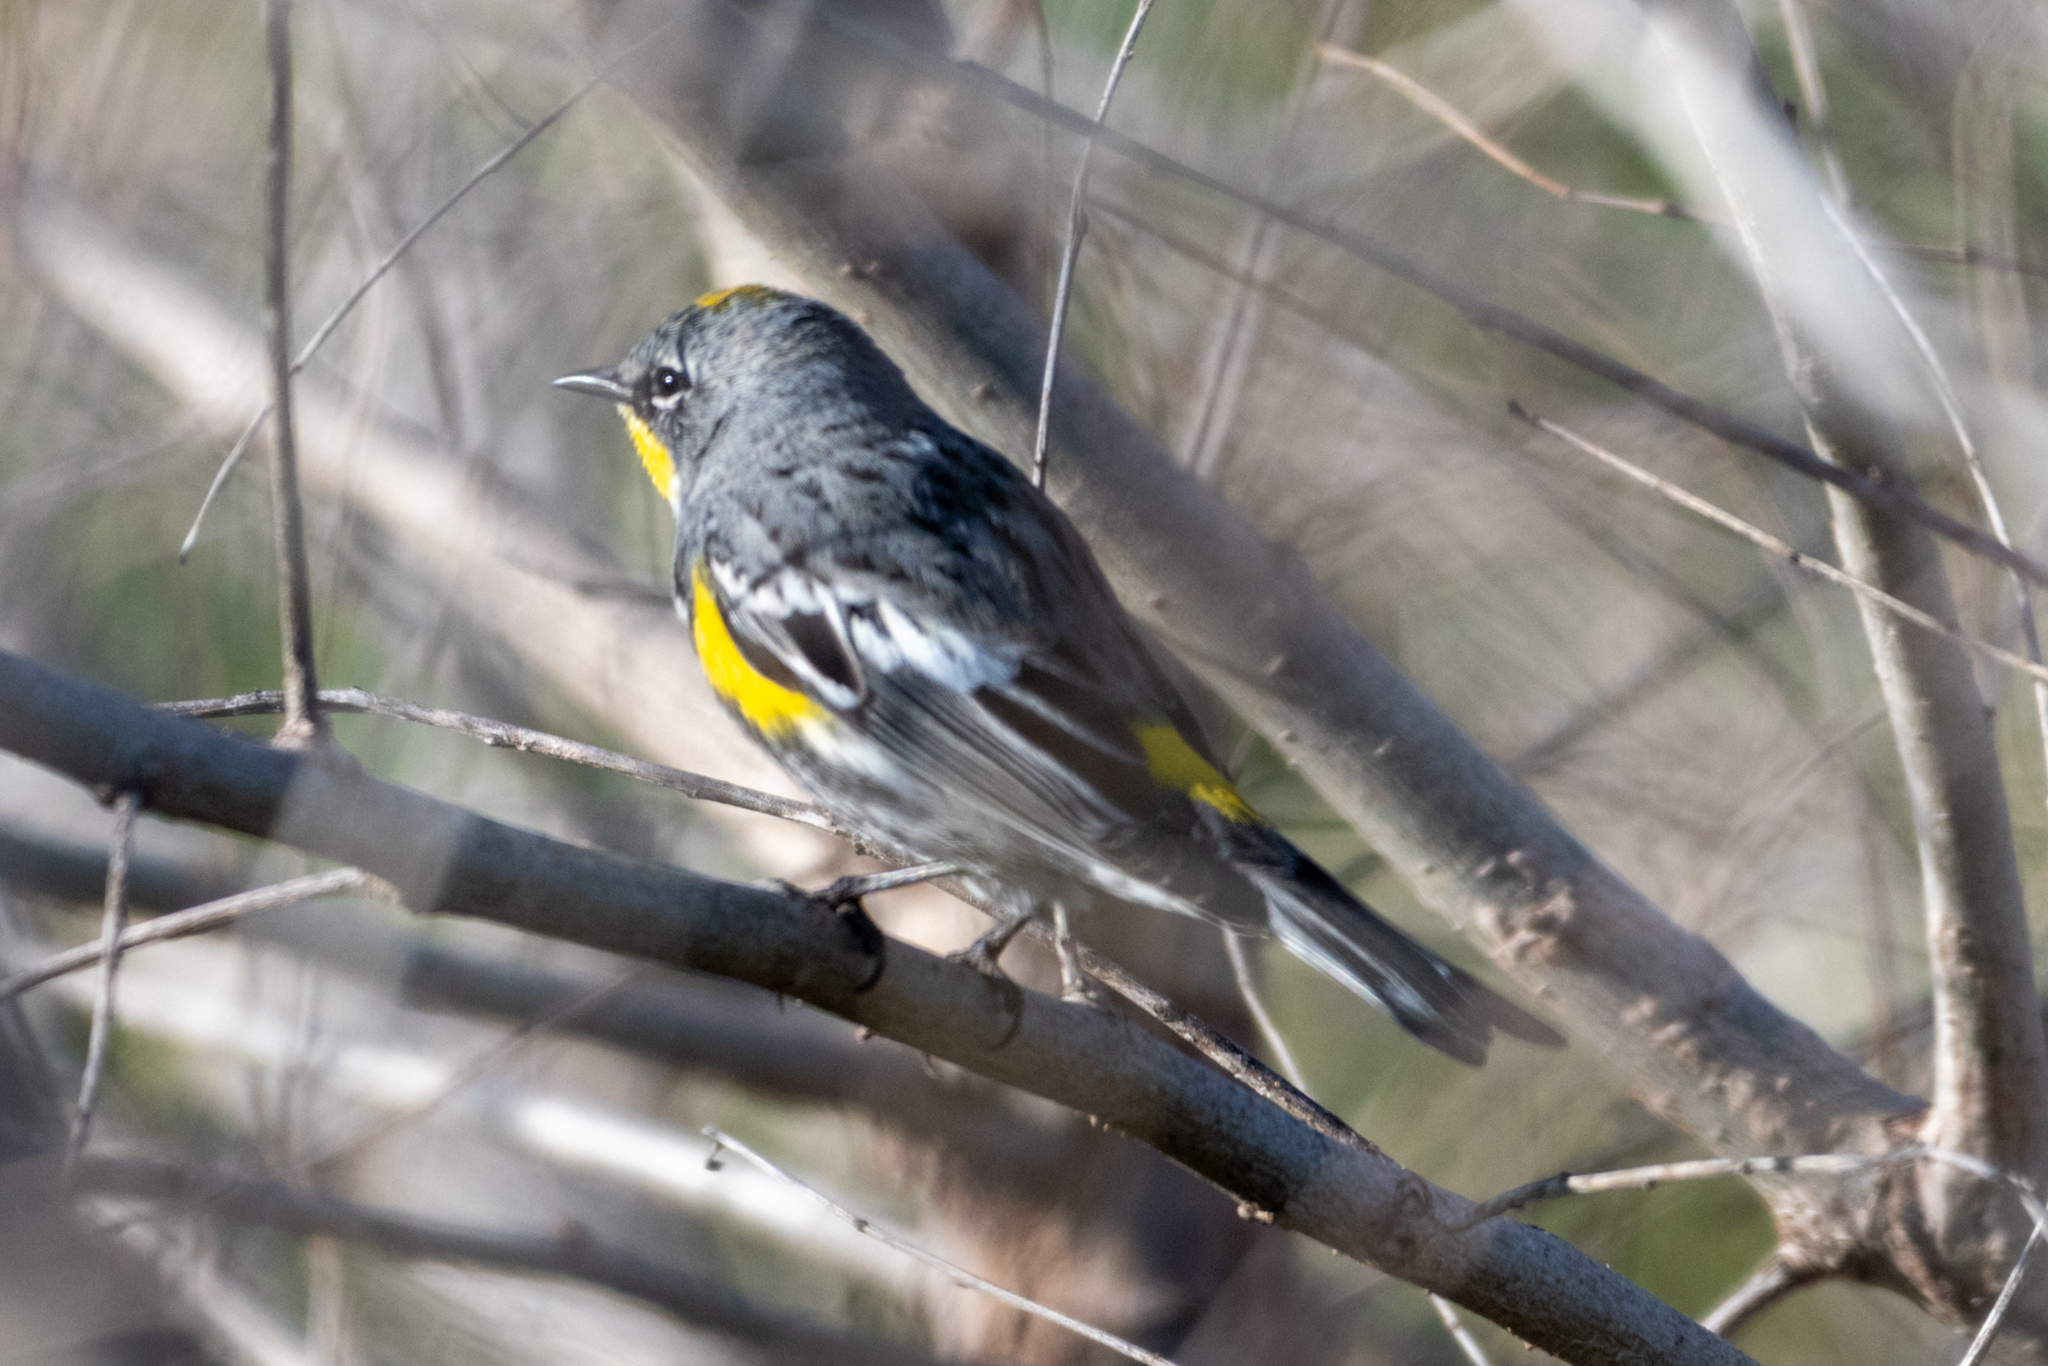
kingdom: Animalia
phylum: Chordata
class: Aves
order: Passeriformes
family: Parulidae
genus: Setophaga
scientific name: Setophaga coronata
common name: Myrtle warbler
